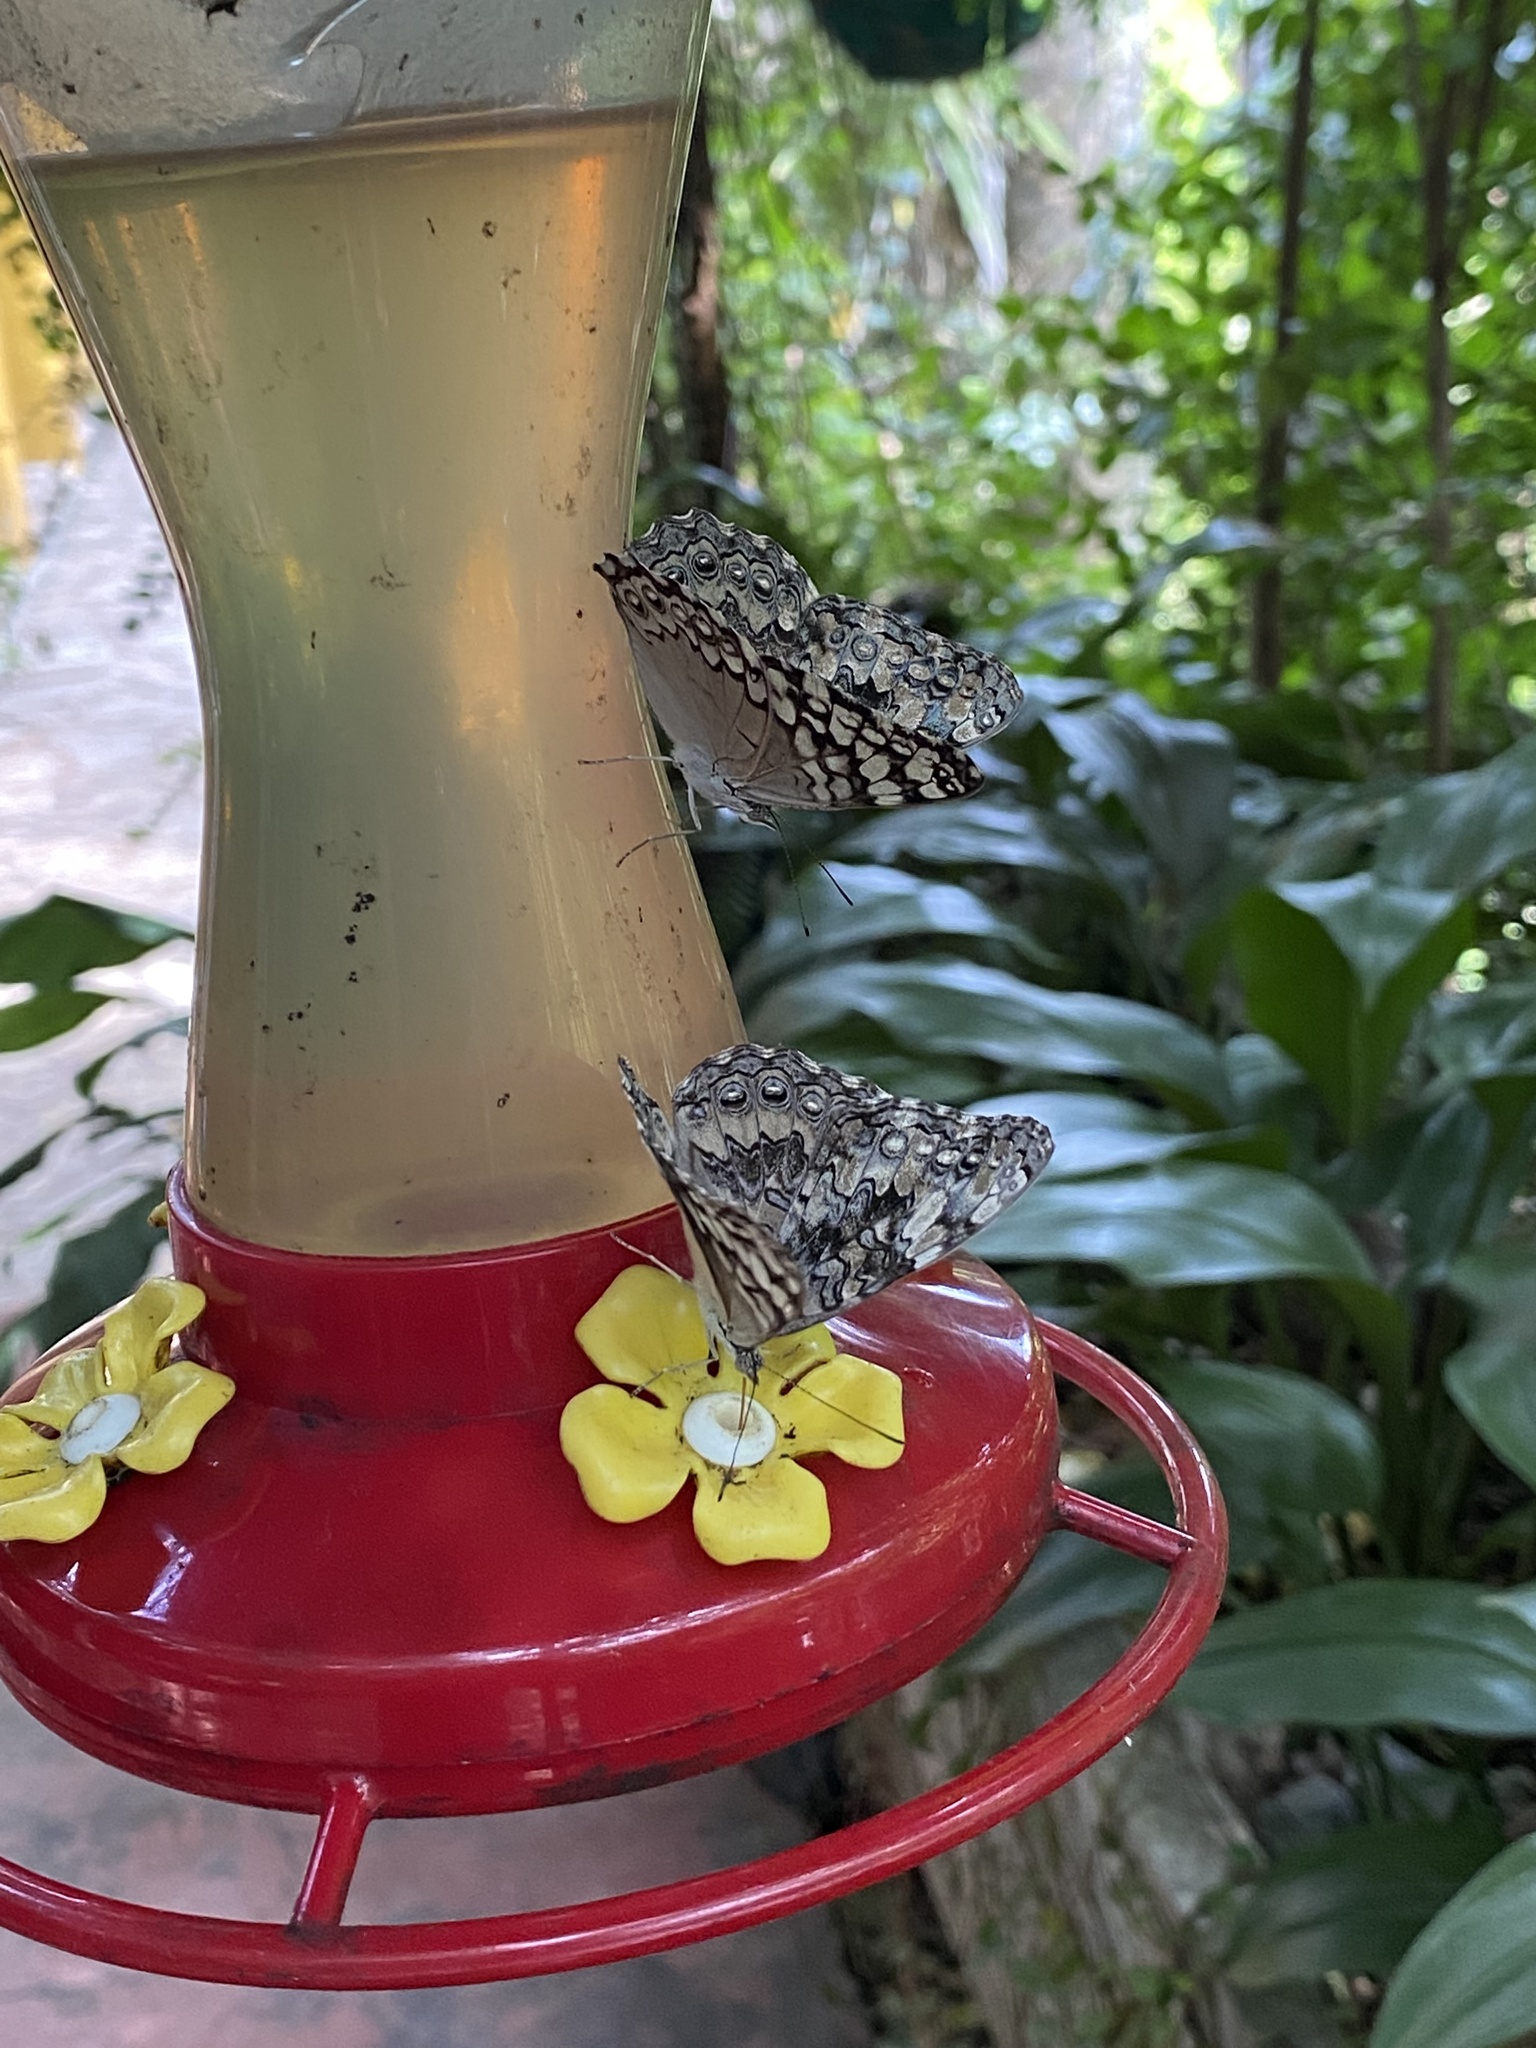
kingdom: Animalia
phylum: Arthropoda
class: Insecta
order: Lepidoptera
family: Nymphalidae
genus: Hamadryas
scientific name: Hamadryas februa
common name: Gray cracker
